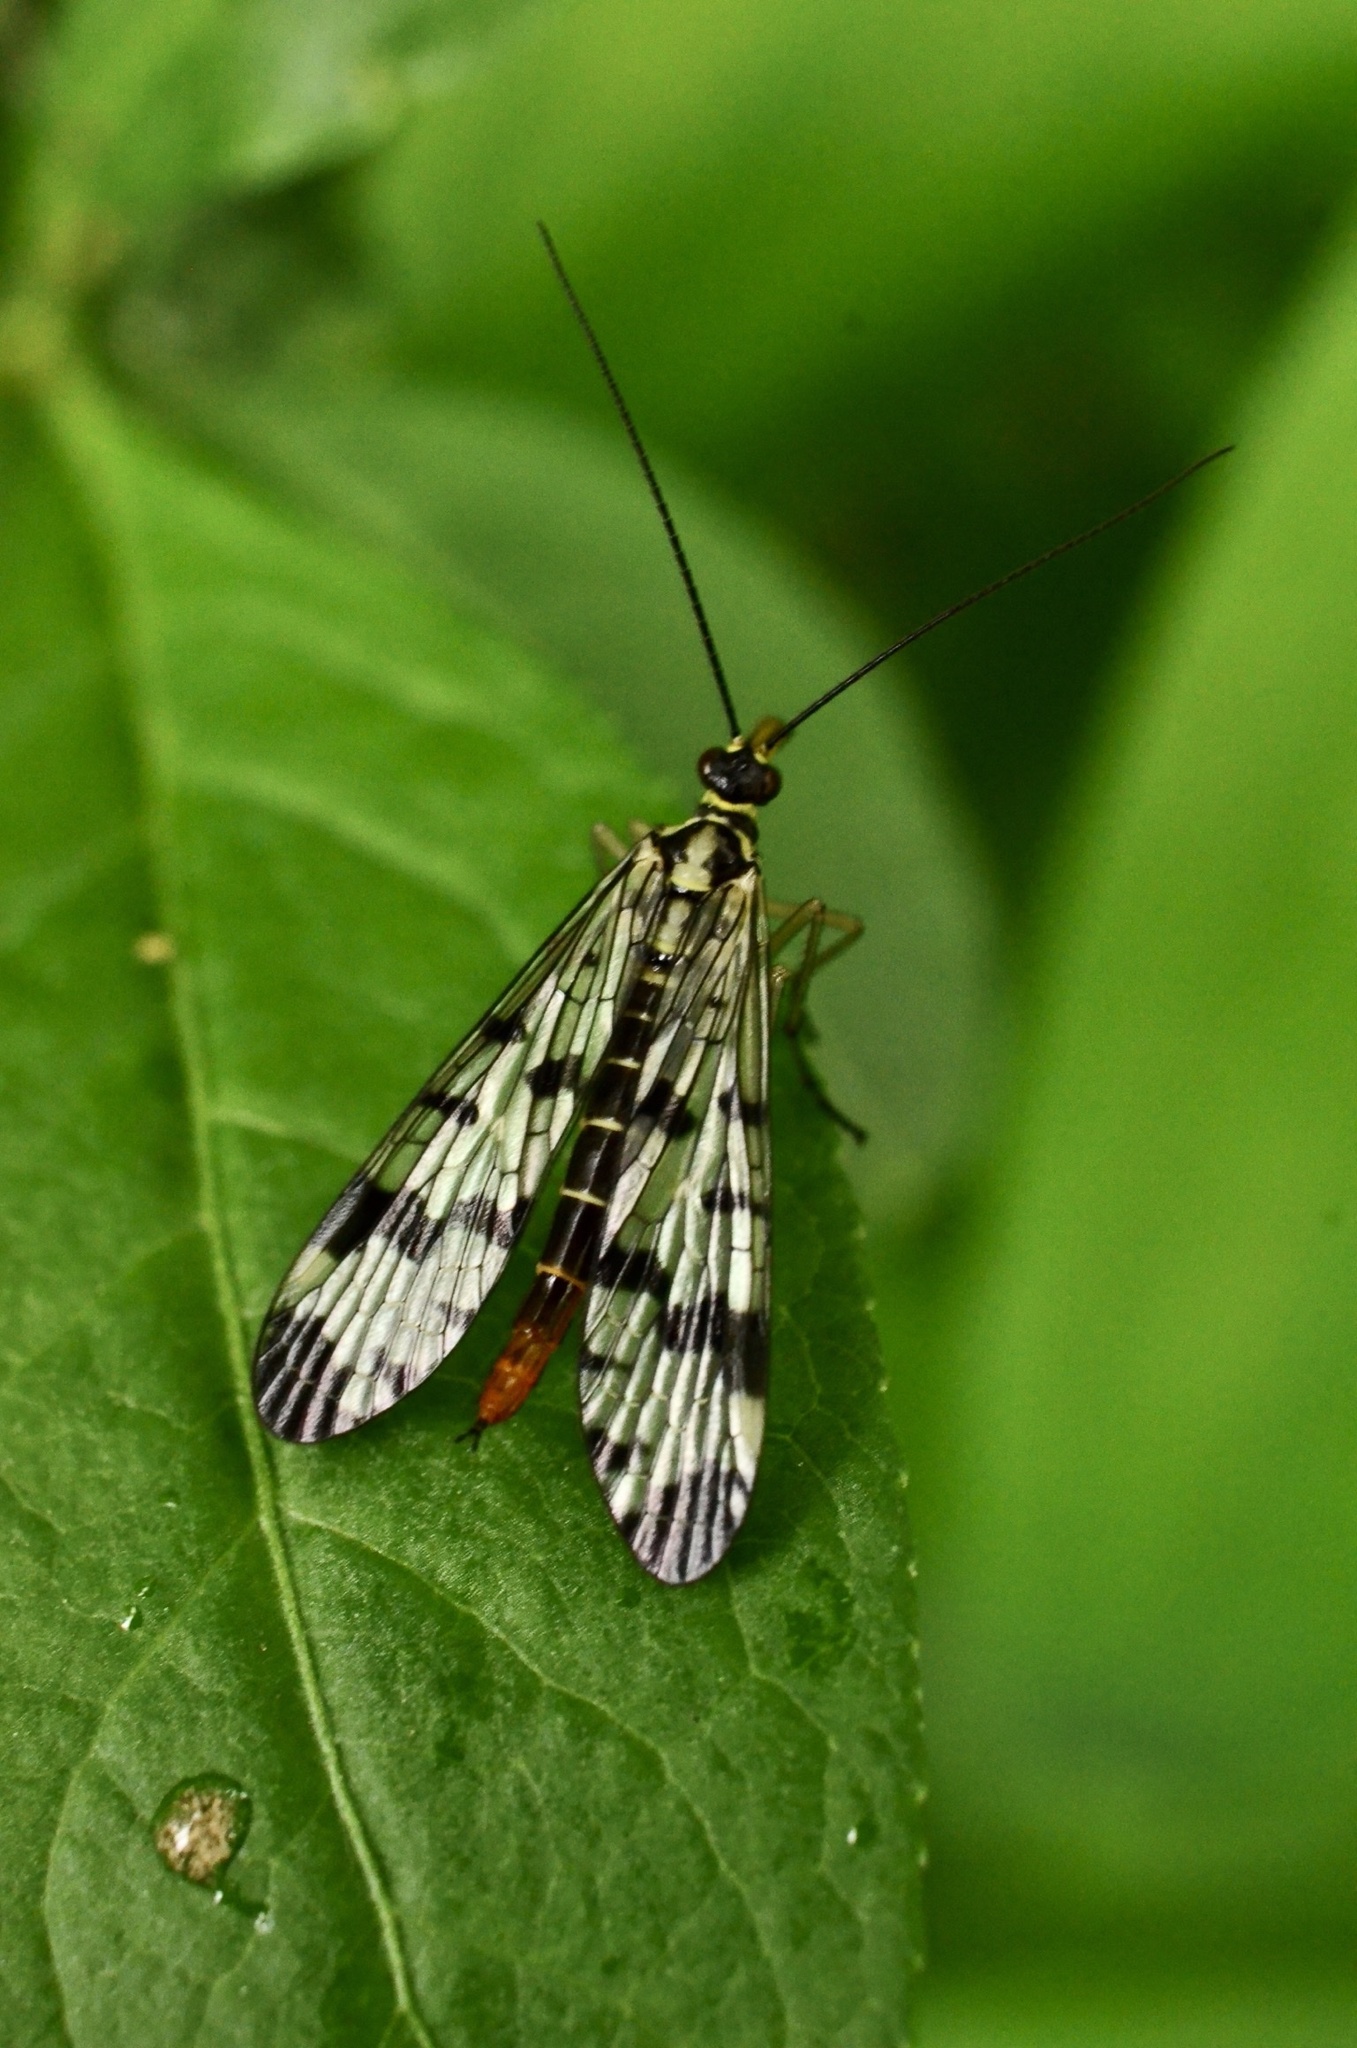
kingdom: Animalia
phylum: Arthropoda
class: Insecta
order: Mecoptera
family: Panorpidae
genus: Panorpa
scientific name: Panorpa communis
